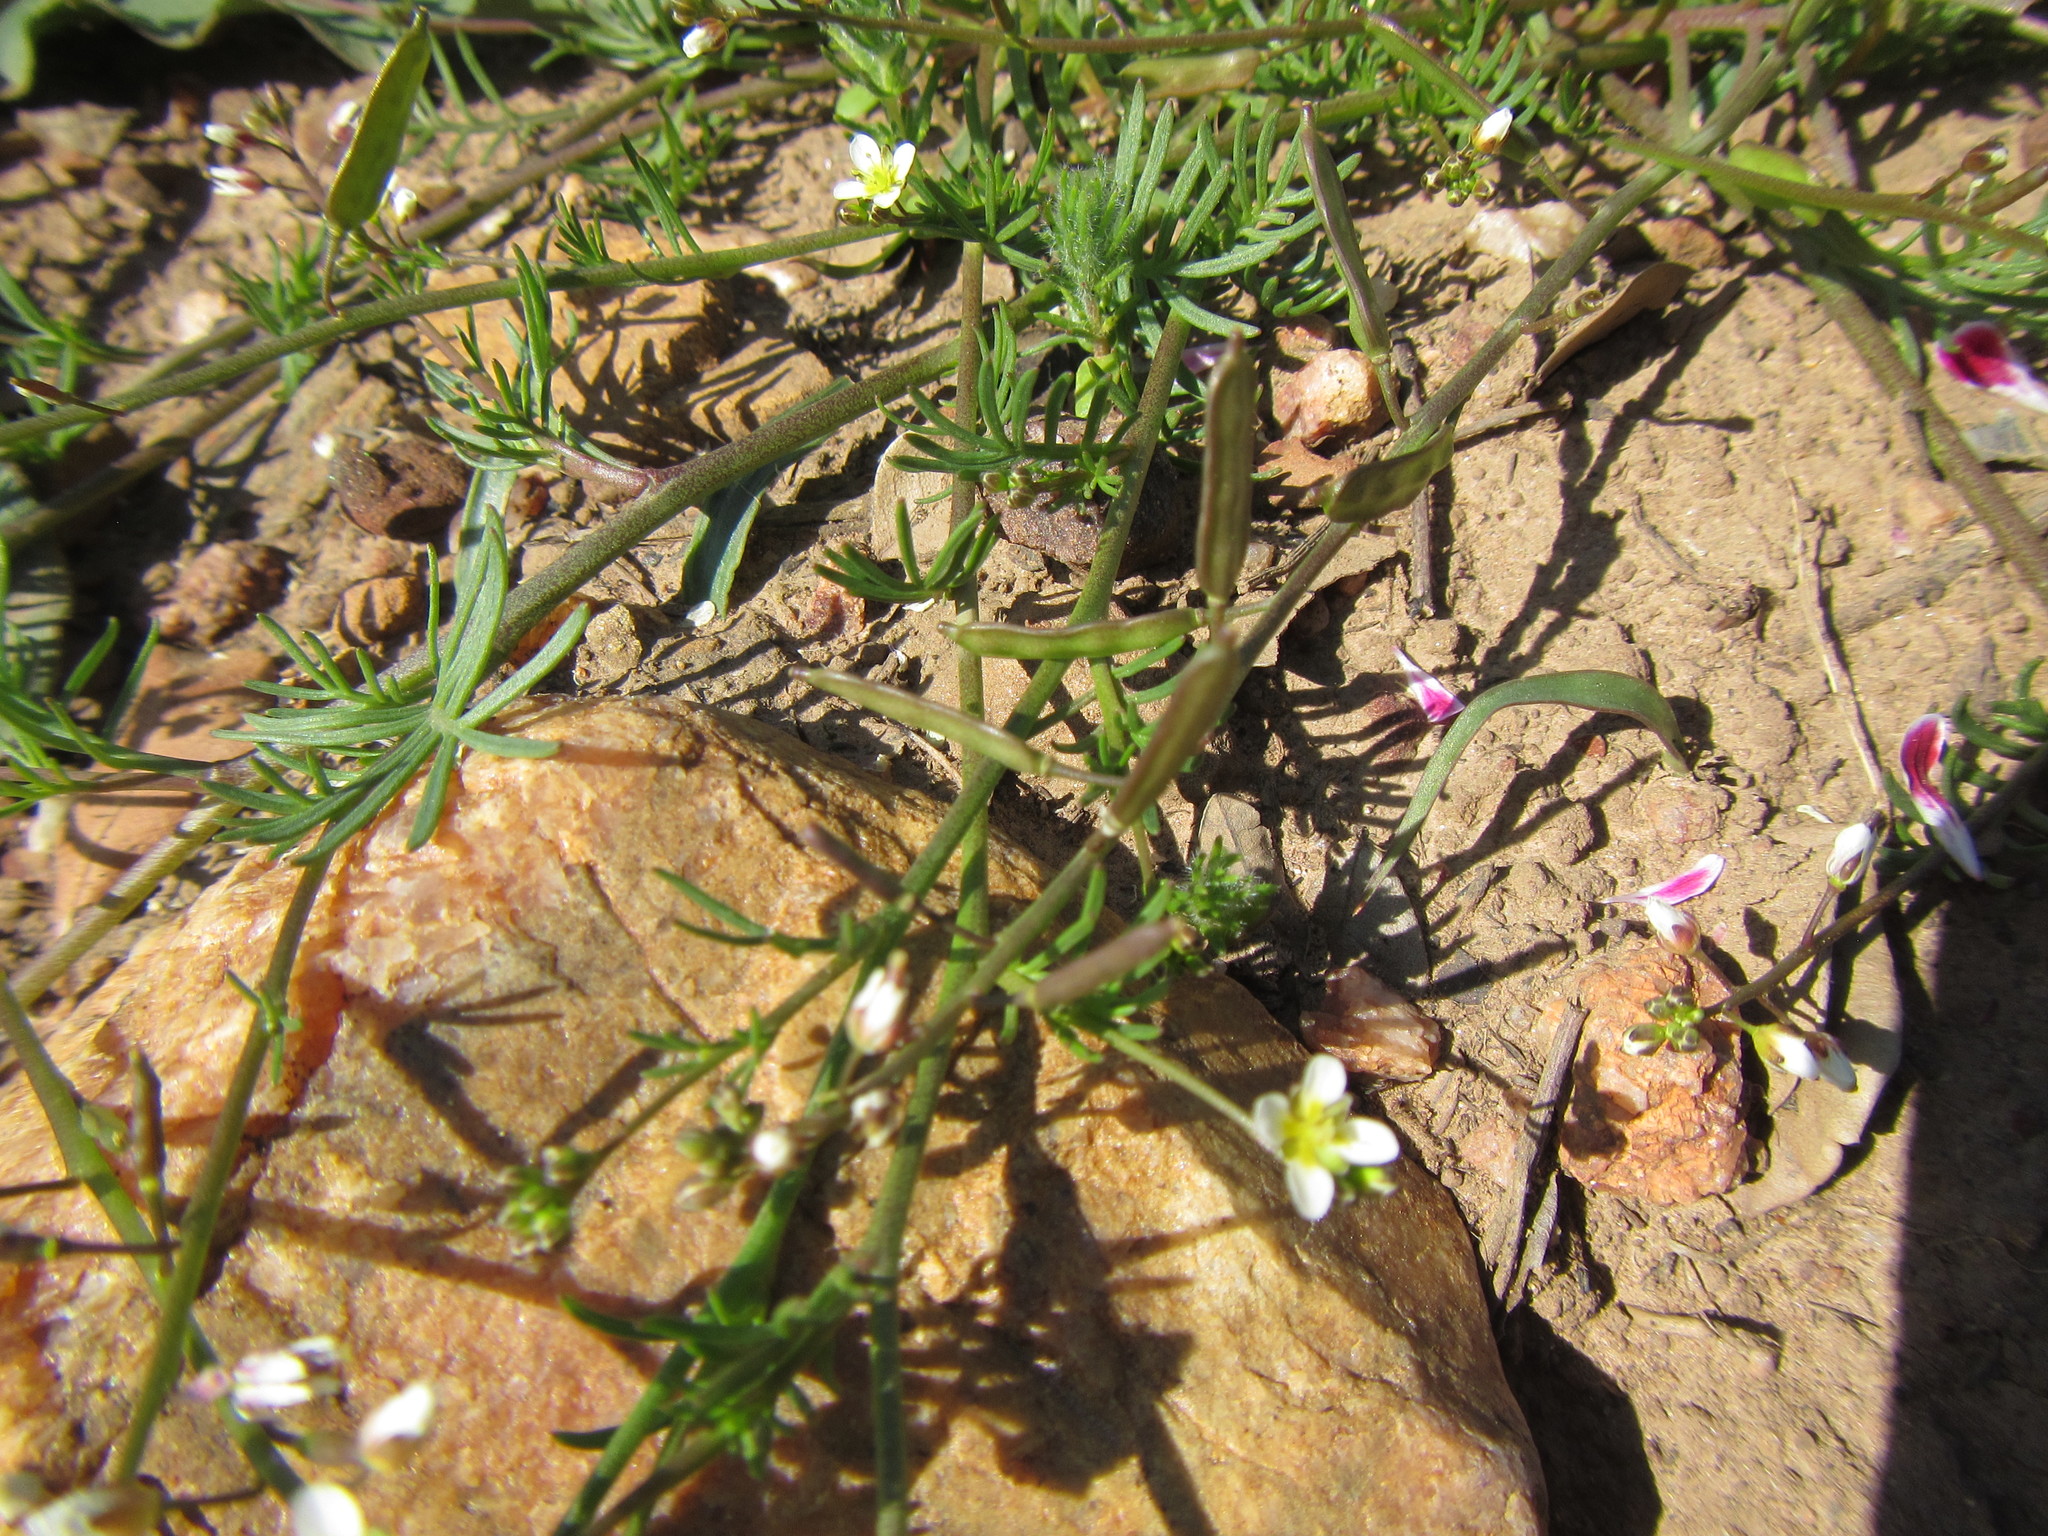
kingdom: Plantae
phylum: Tracheophyta
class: Magnoliopsida
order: Brassicales
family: Brassicaceae
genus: Heliophila
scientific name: Heliophila diffusa
